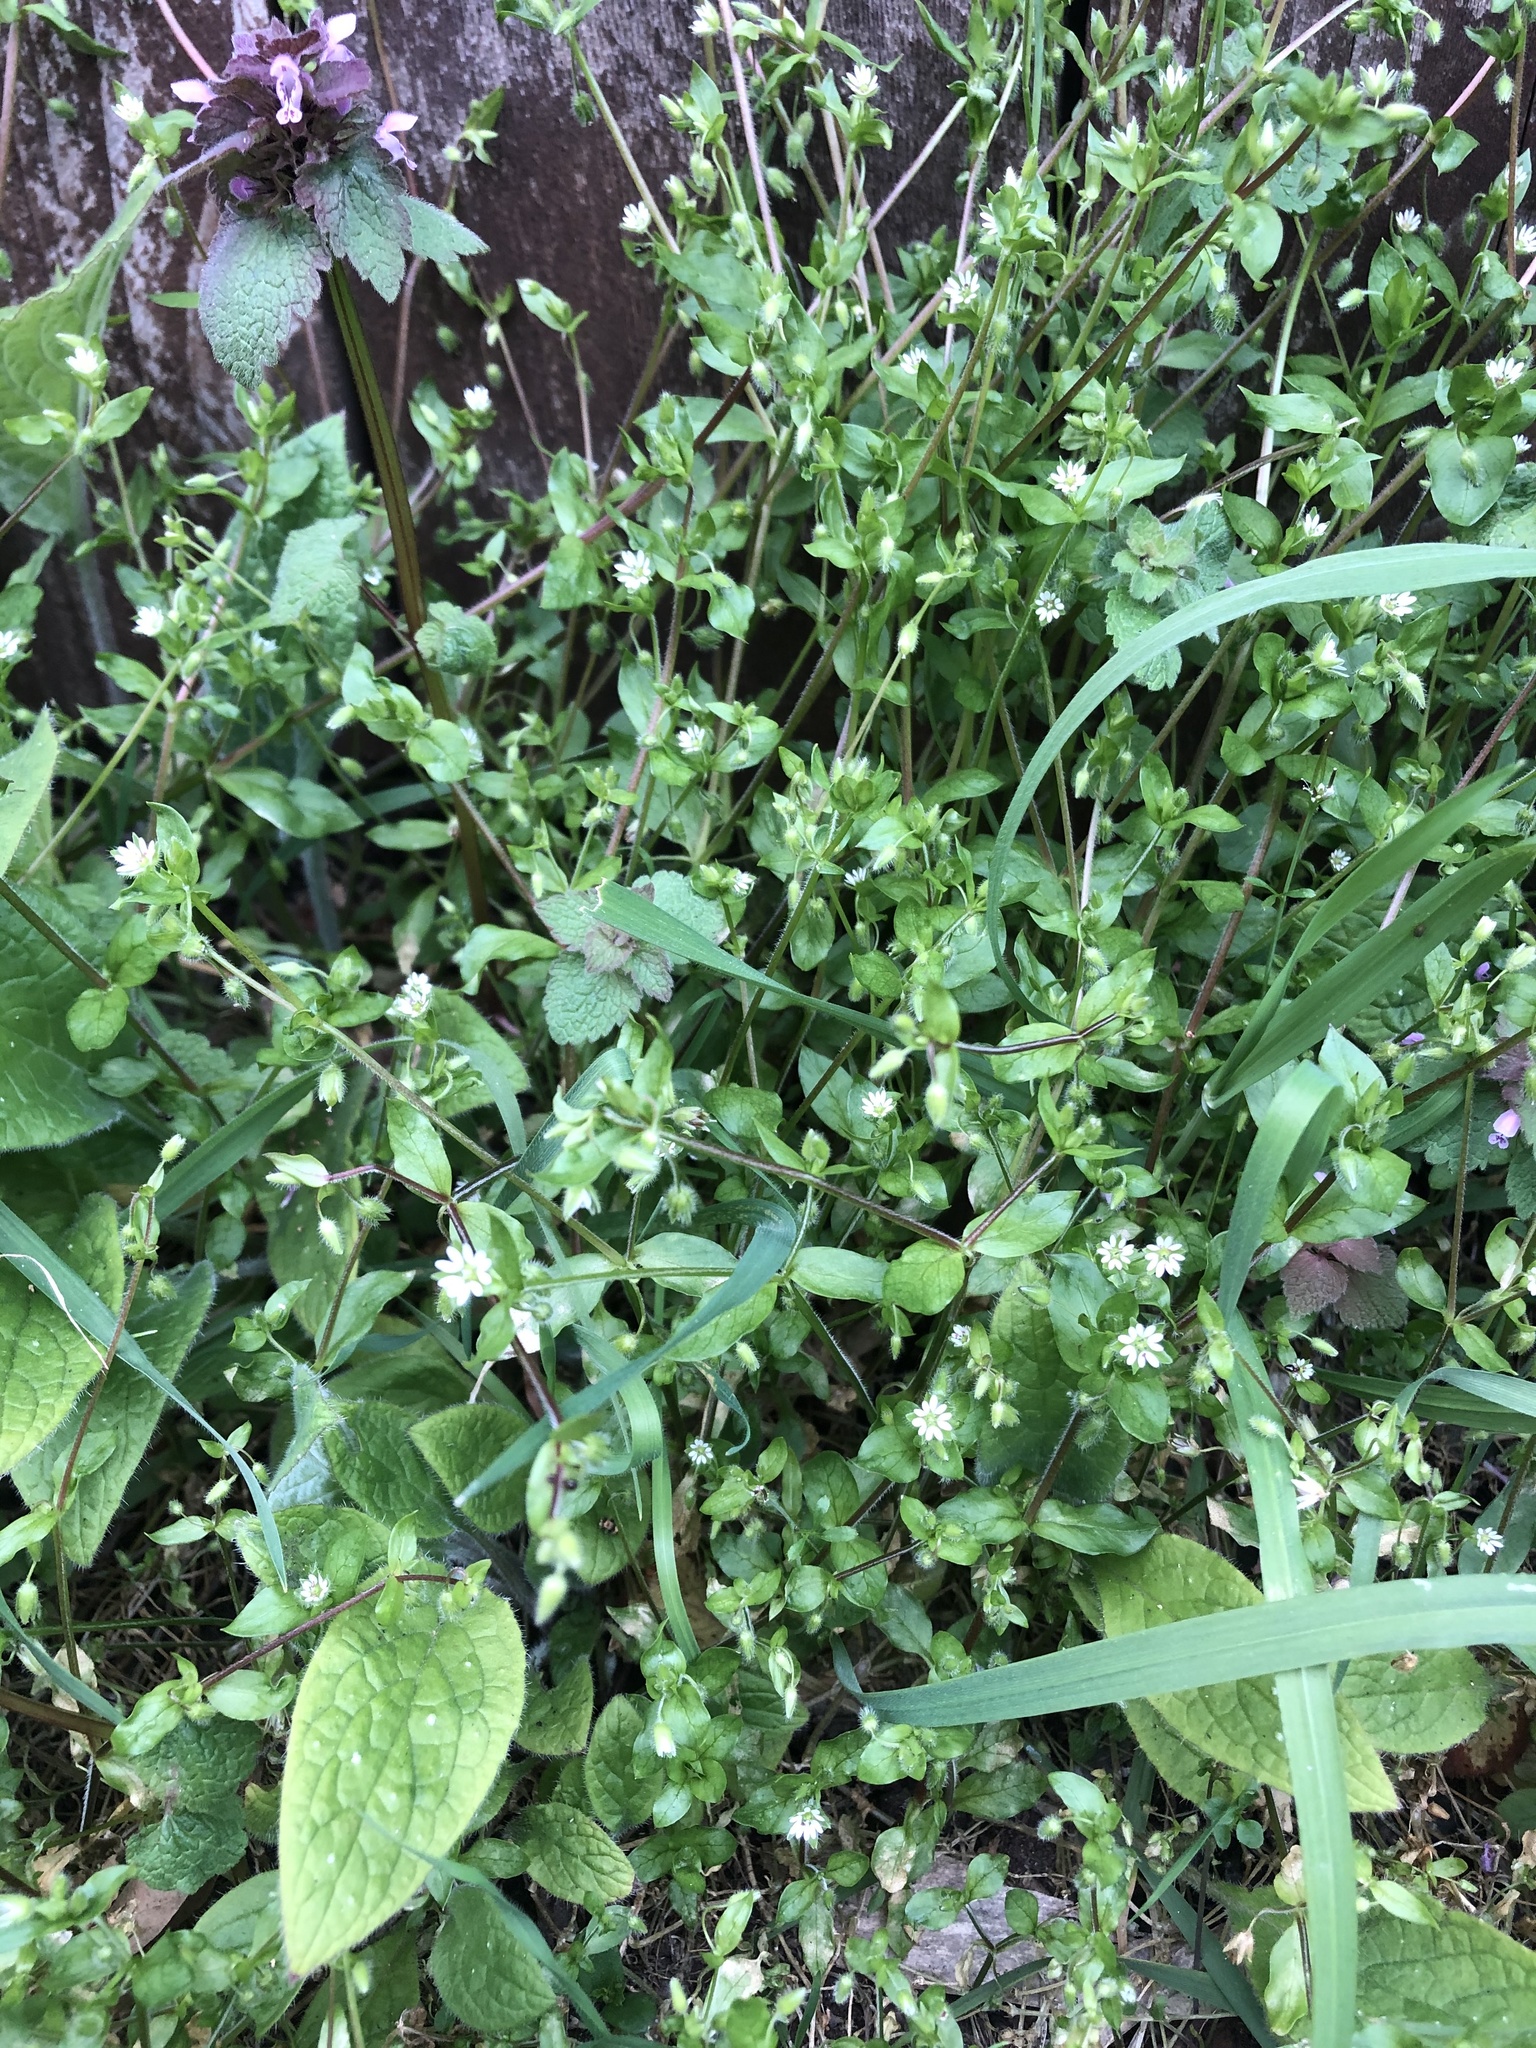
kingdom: Plantae
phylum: Tracheophyta
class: Magnoliopsida
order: Caryophyllales
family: Caryophyllaceae
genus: Stellaria
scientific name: Stellaria media
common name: Common chickweed
